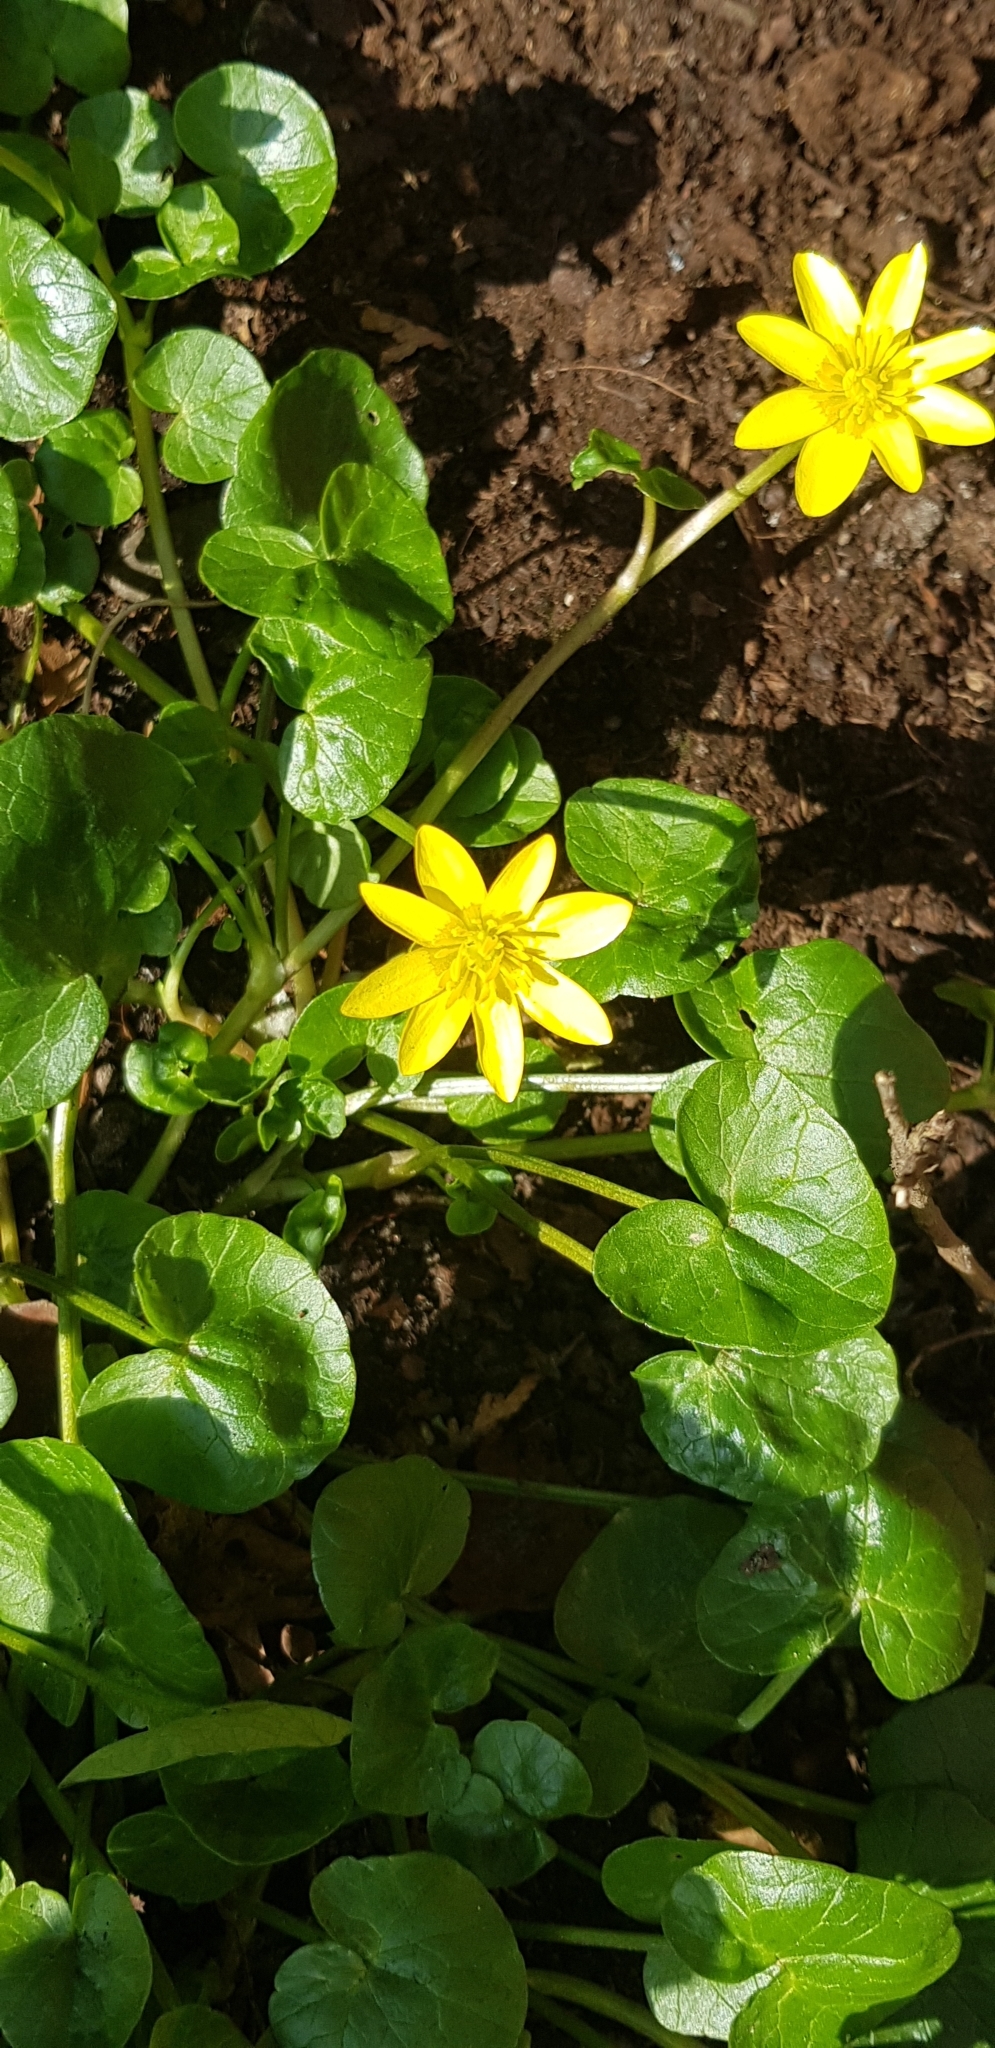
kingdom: Plantae
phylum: Tracheophyta
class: Magnoliopsida
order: Ranunculales
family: Ranunculaceae
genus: Ficaria
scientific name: Ficaria verna
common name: Lesser celandine
